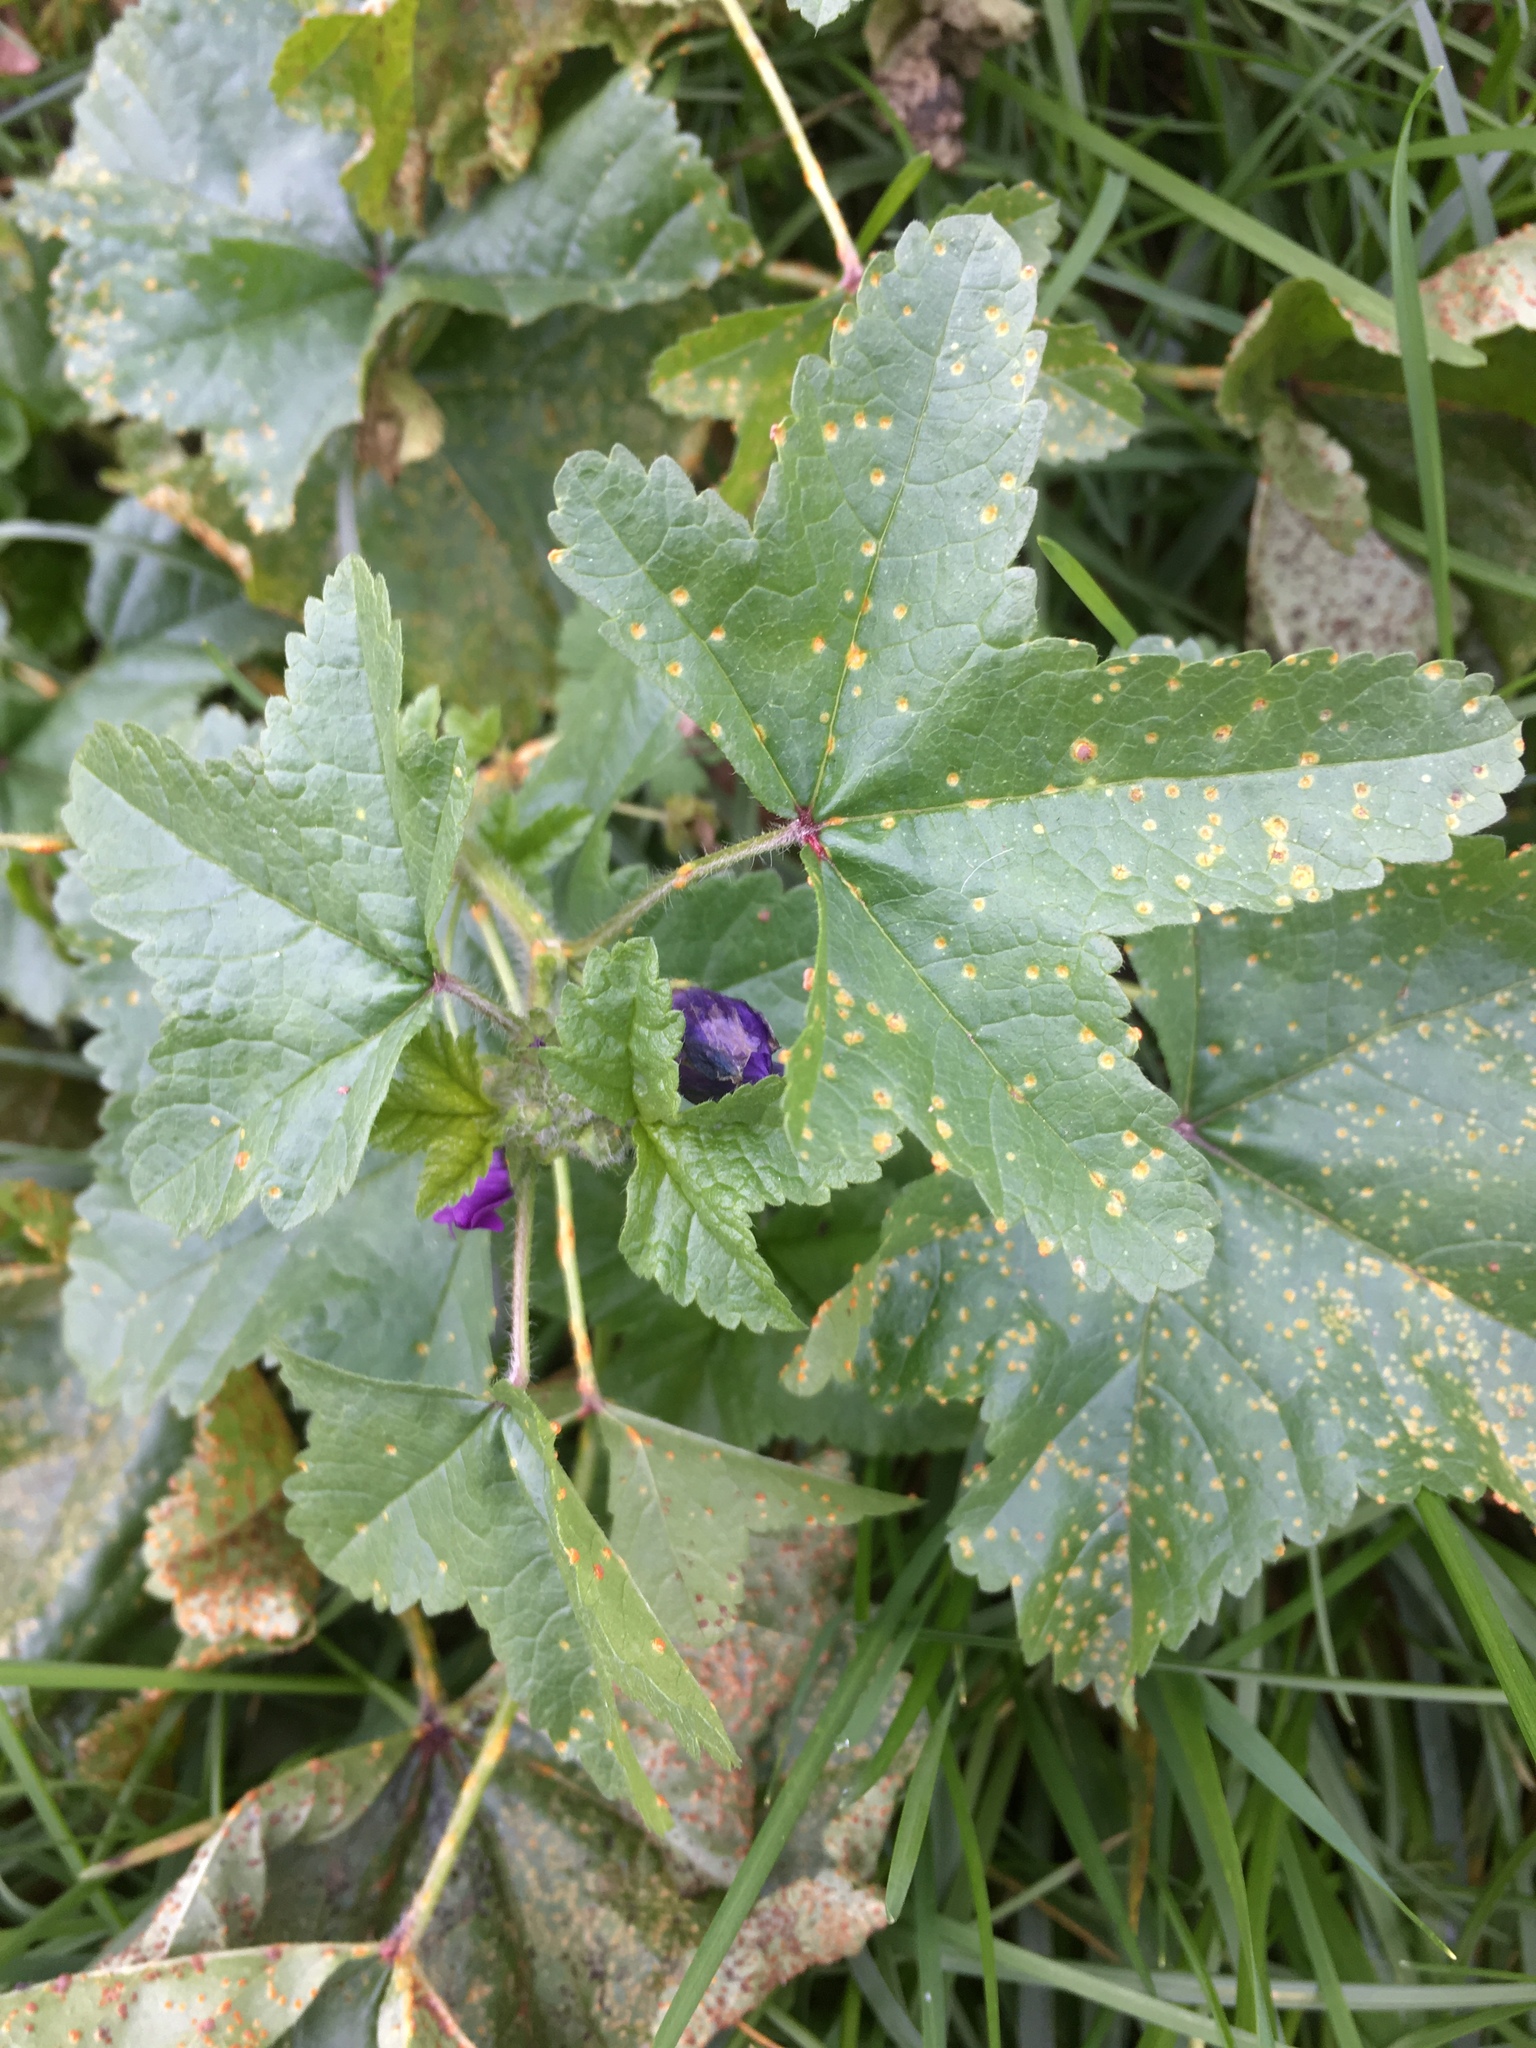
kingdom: Plantae
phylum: Tracheophyta
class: Magnoliopsida
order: Malvales
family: Malvaceae
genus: Malva
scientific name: Malva sylvestris
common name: Common mallow
